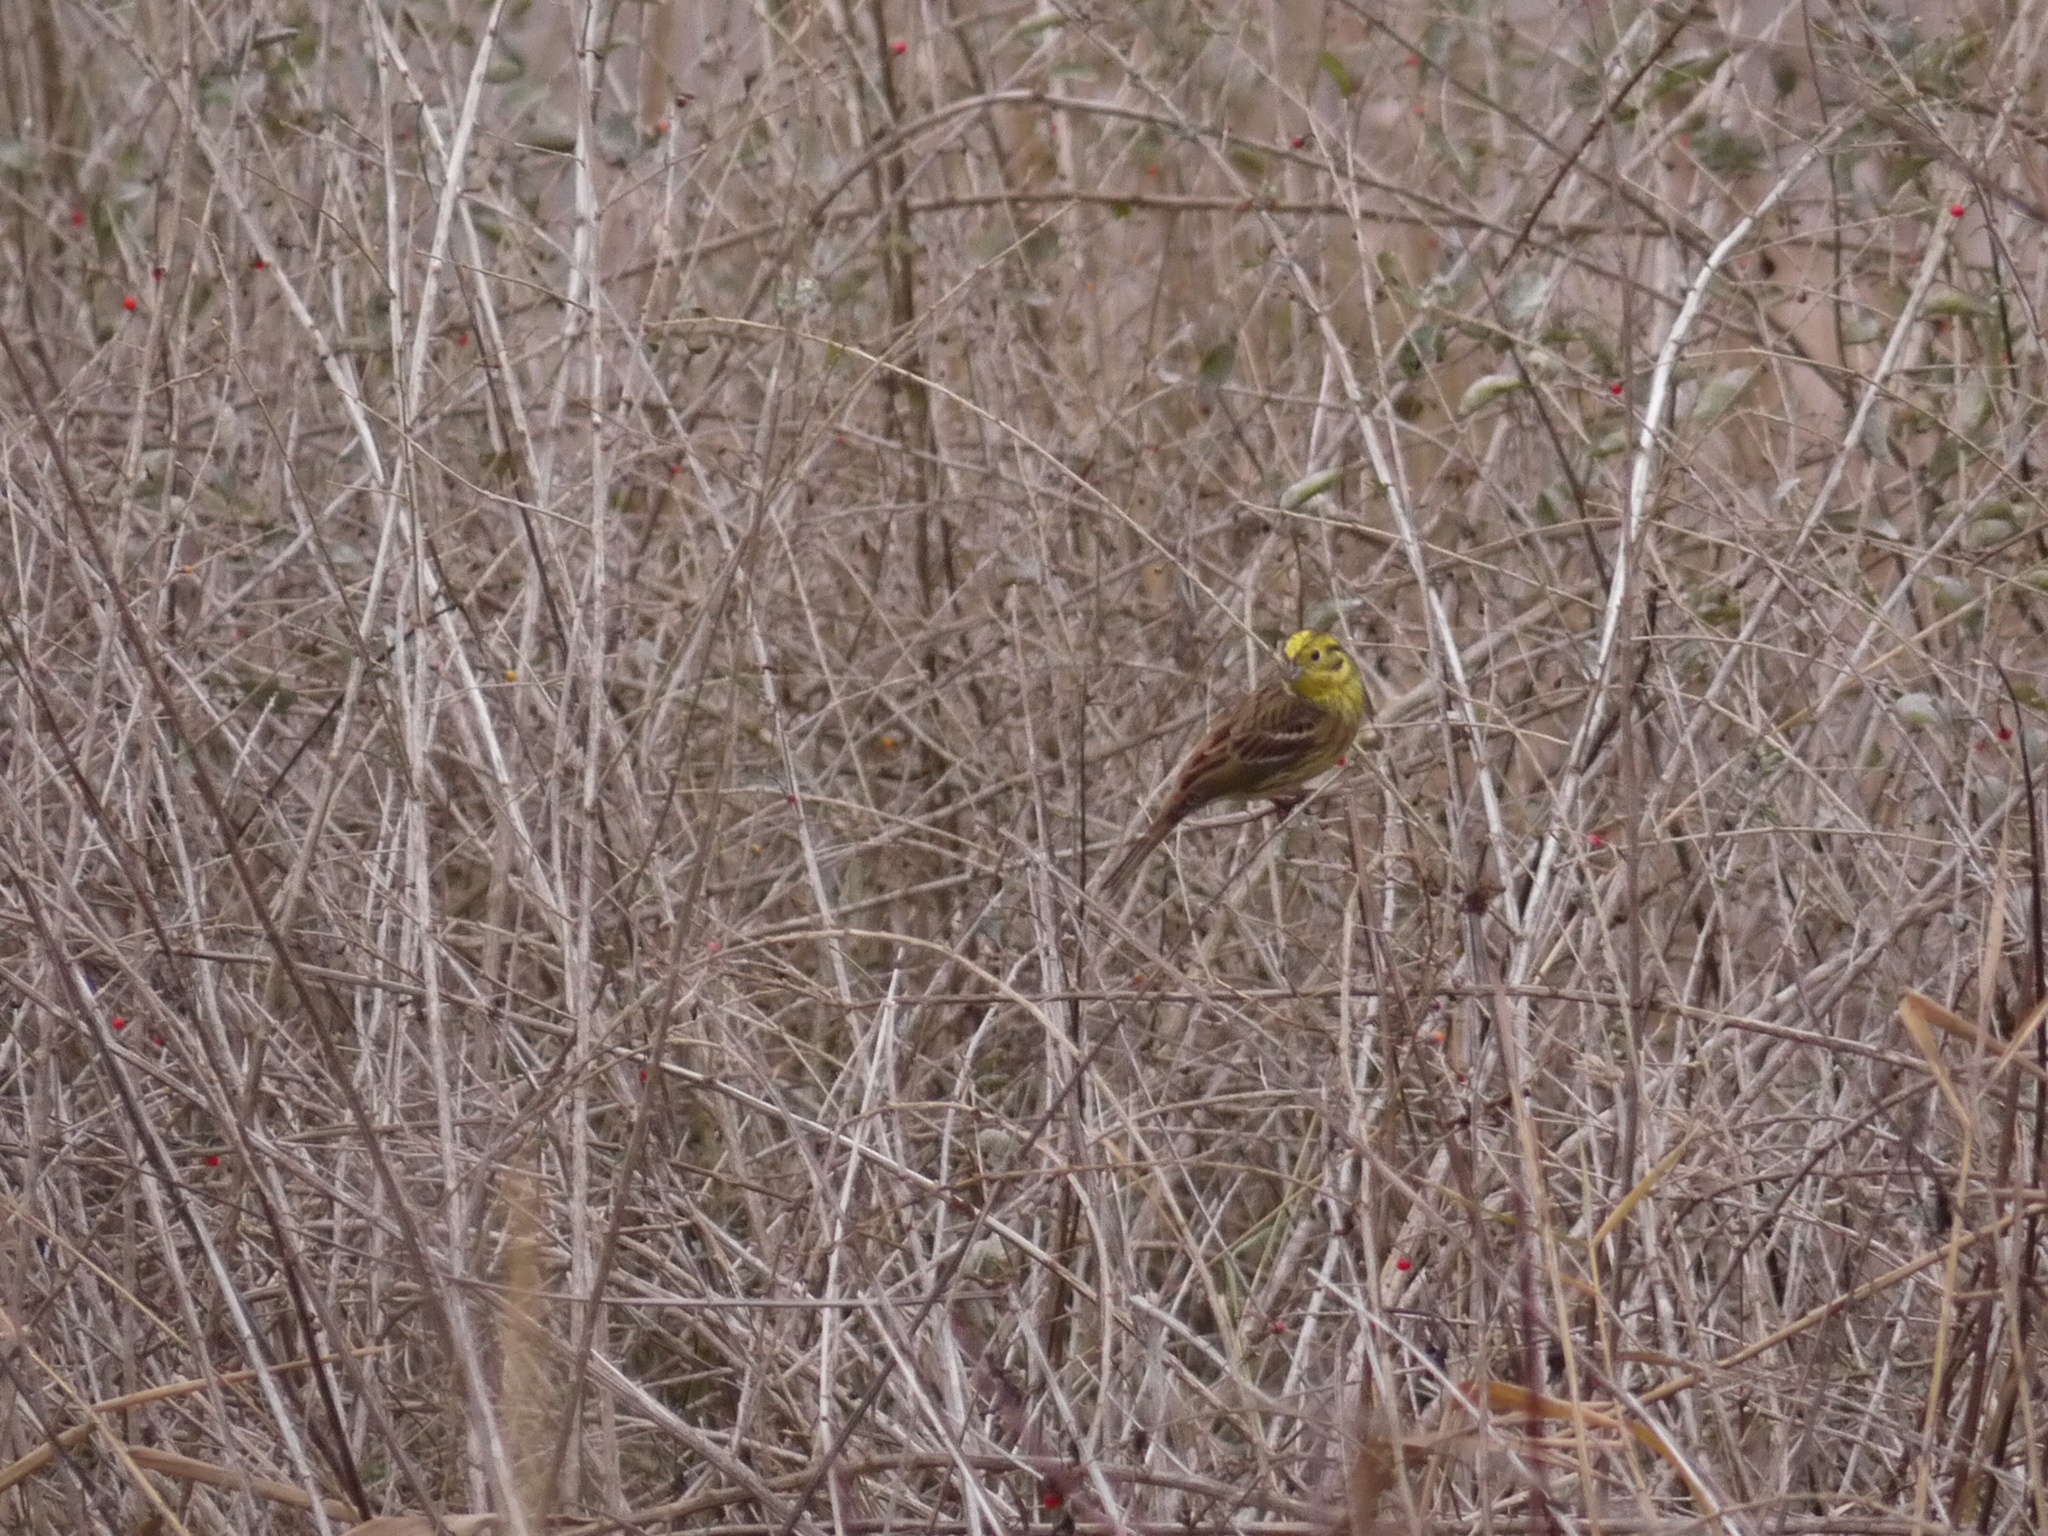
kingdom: Animalia
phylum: Chordata
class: Aves
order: Passeriformes
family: Emberizidae
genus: Emberiza
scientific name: Emberiza citrinella
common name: Yellowhammer
